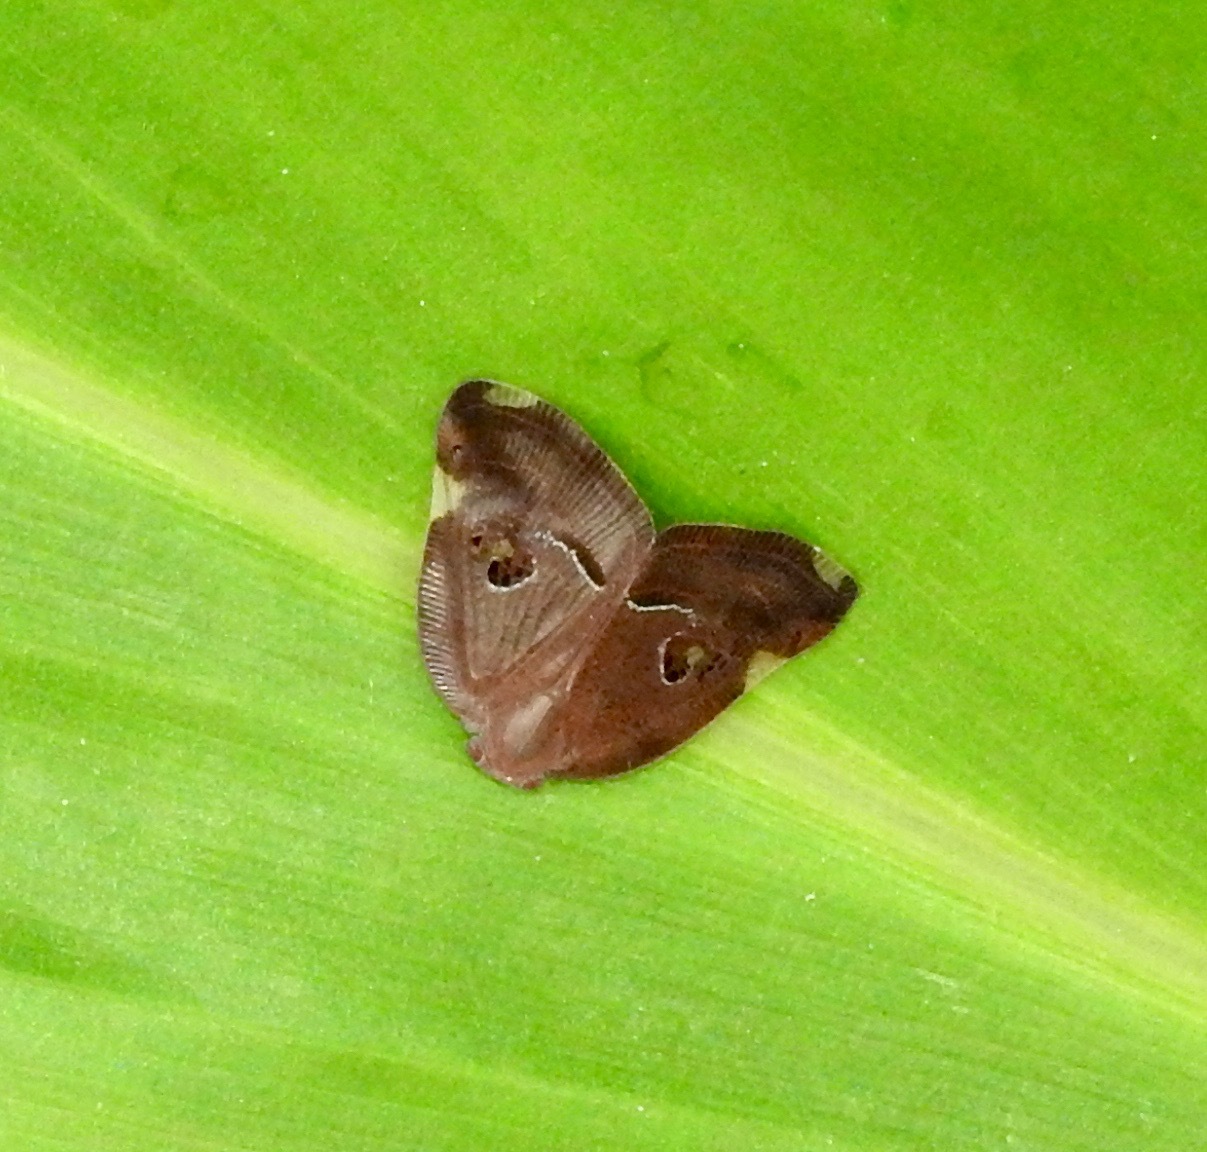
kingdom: Animalia
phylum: Arthropoda
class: Insecta
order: Hemiptera
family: Ricaniidae
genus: Ricania
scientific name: Ricania guttata
